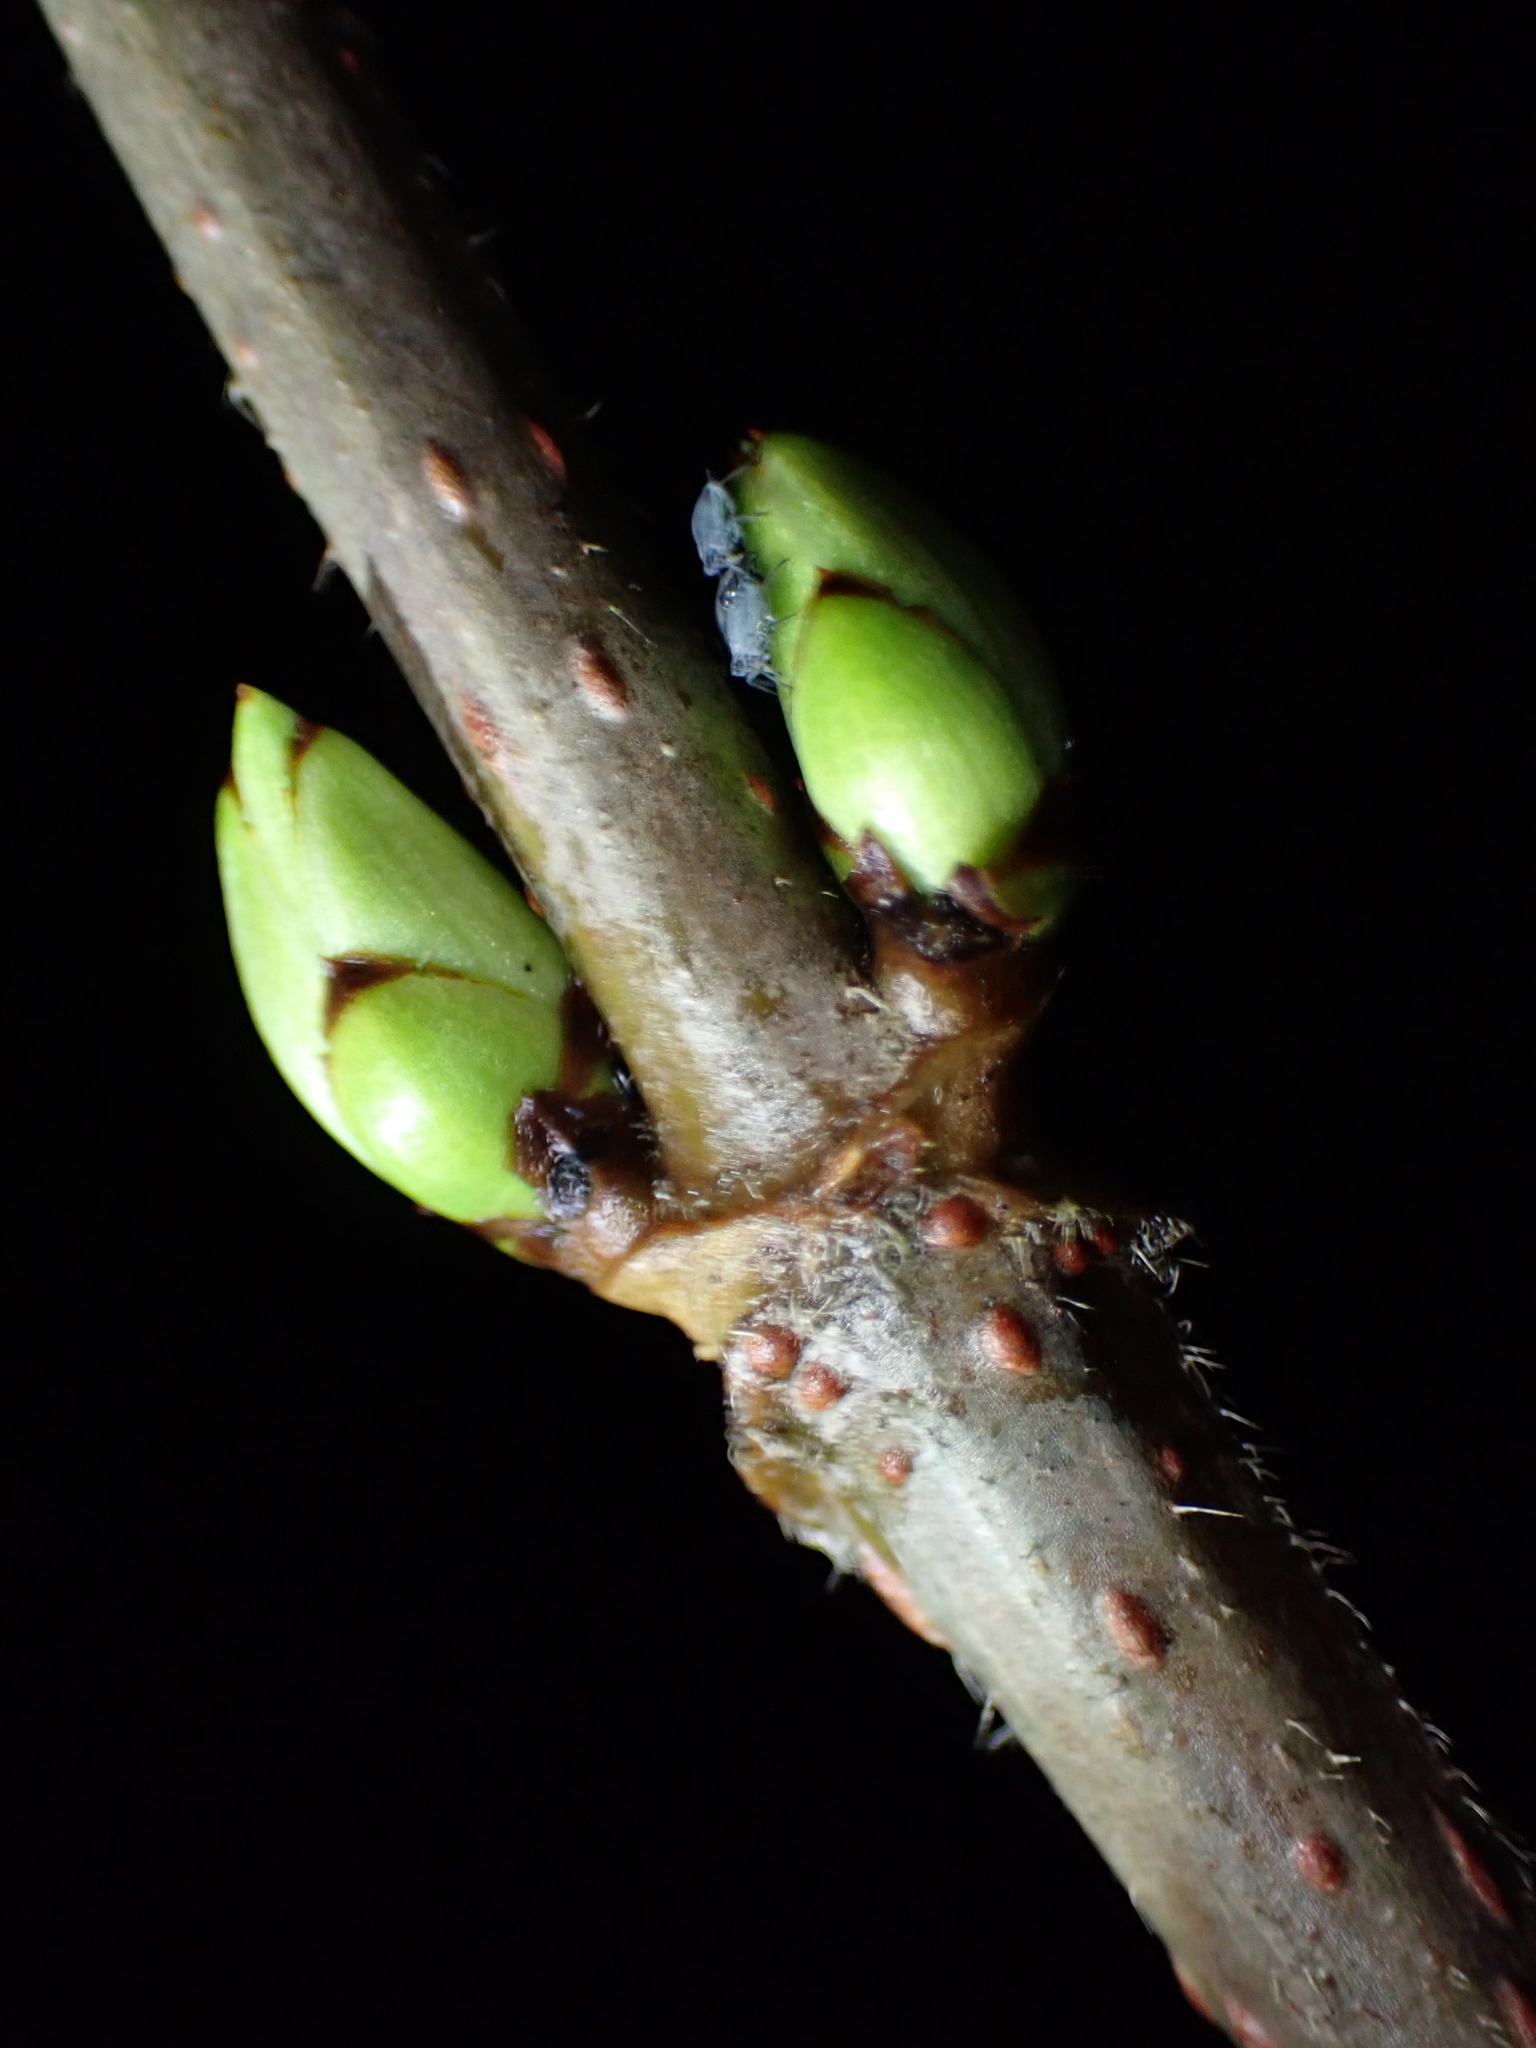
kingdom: Plantae
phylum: Tracheophyta
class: Magnoliopsida
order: Dipsacales
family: Viburnaceae
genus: Sambucus
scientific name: Sambucus racemosa
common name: Red-berried elder
